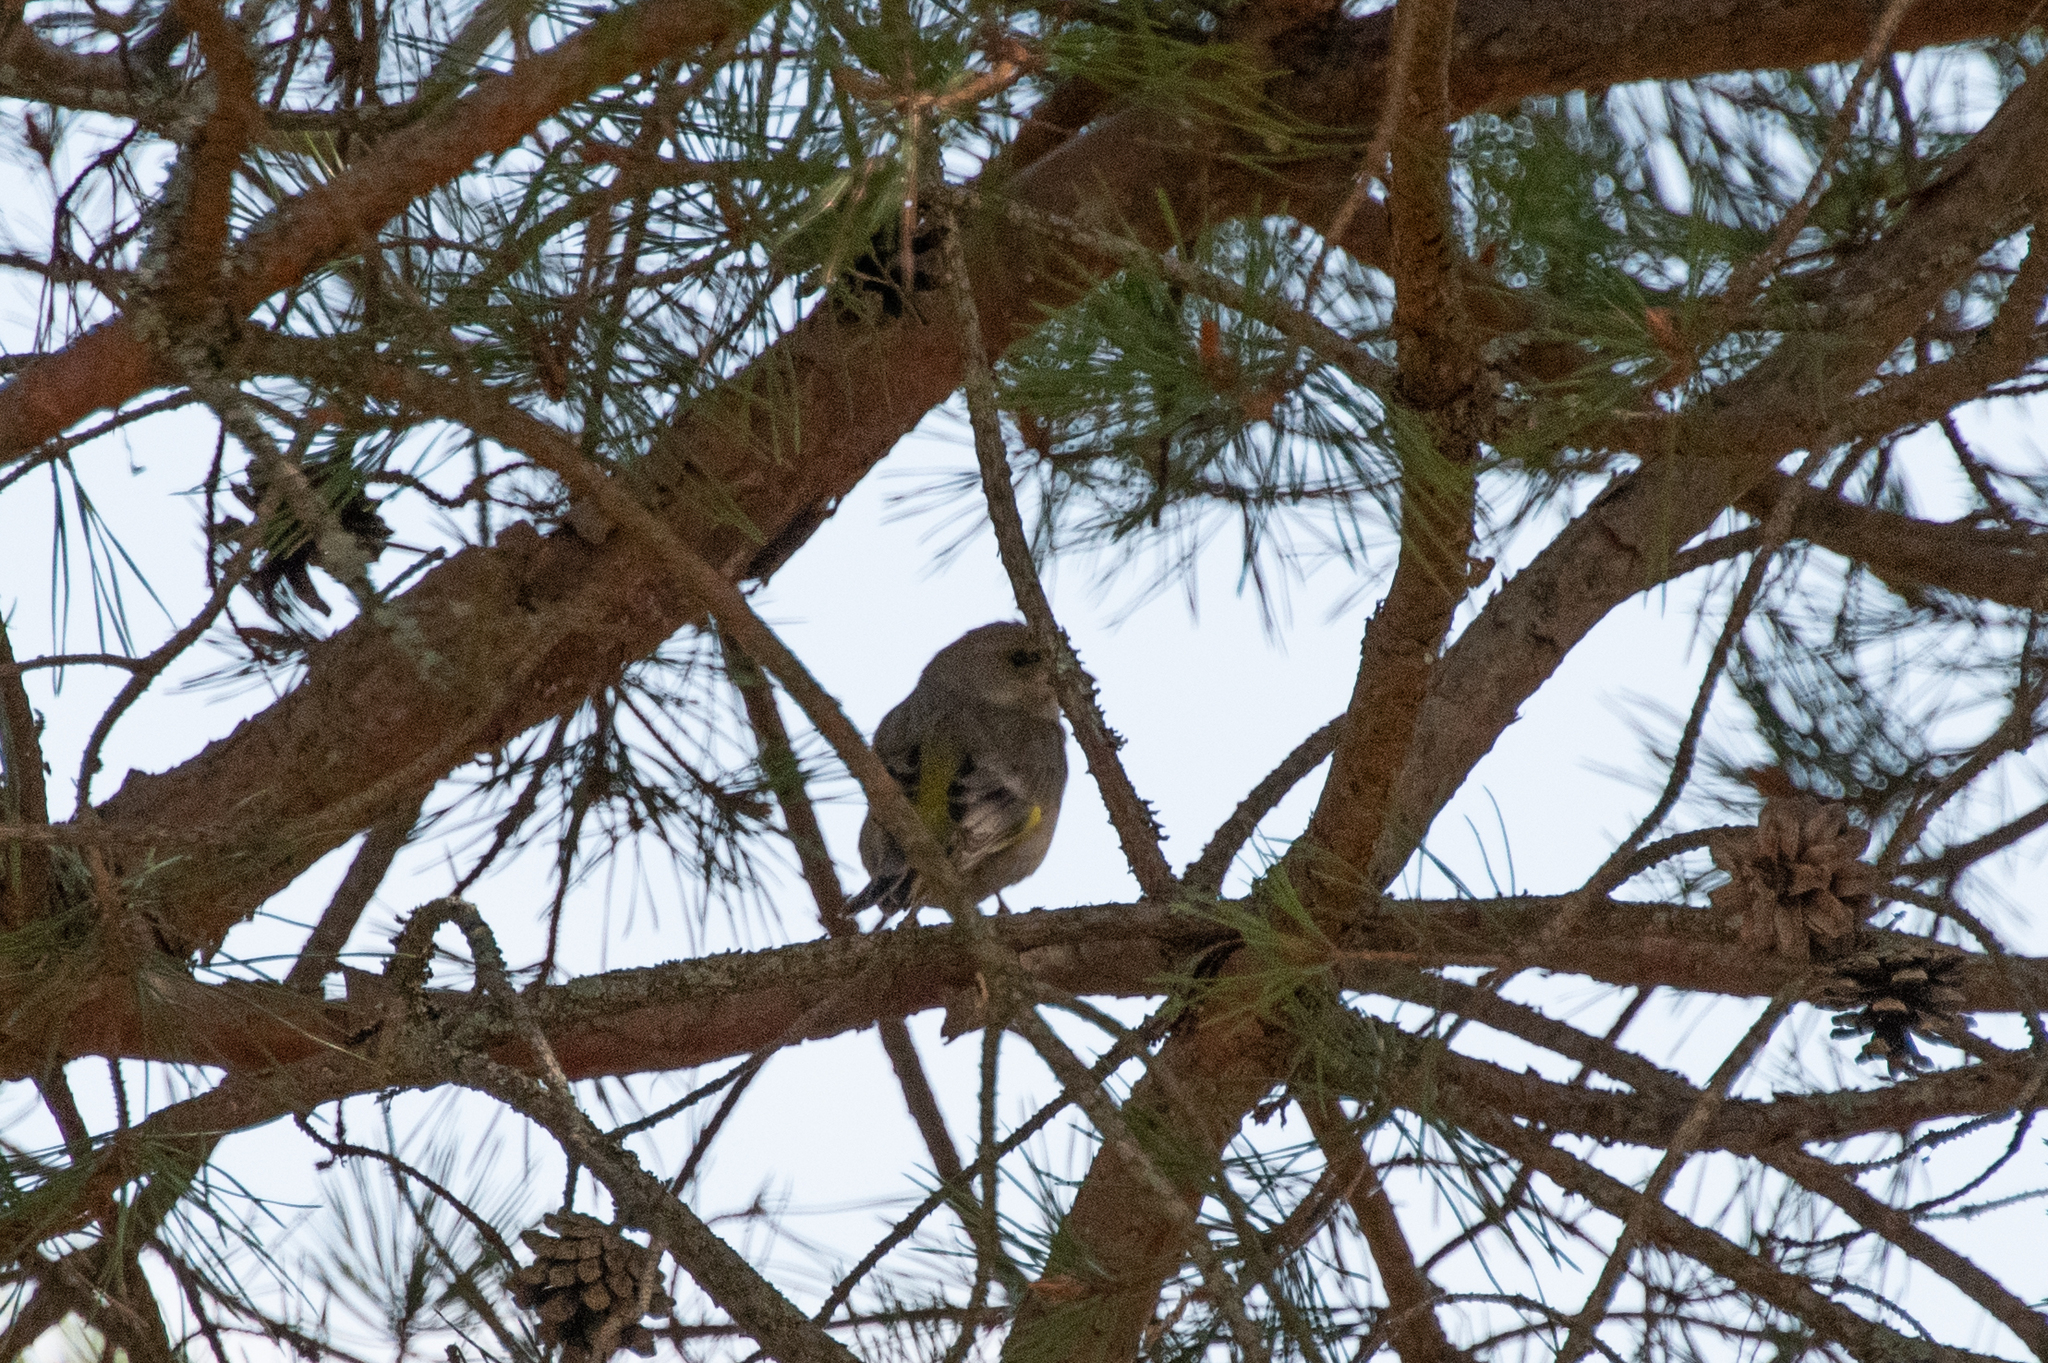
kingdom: Plantae
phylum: Tracheophyta
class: Liliopsida
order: Poales
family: Poaceae
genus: Chloris
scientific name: Chloris chloris
